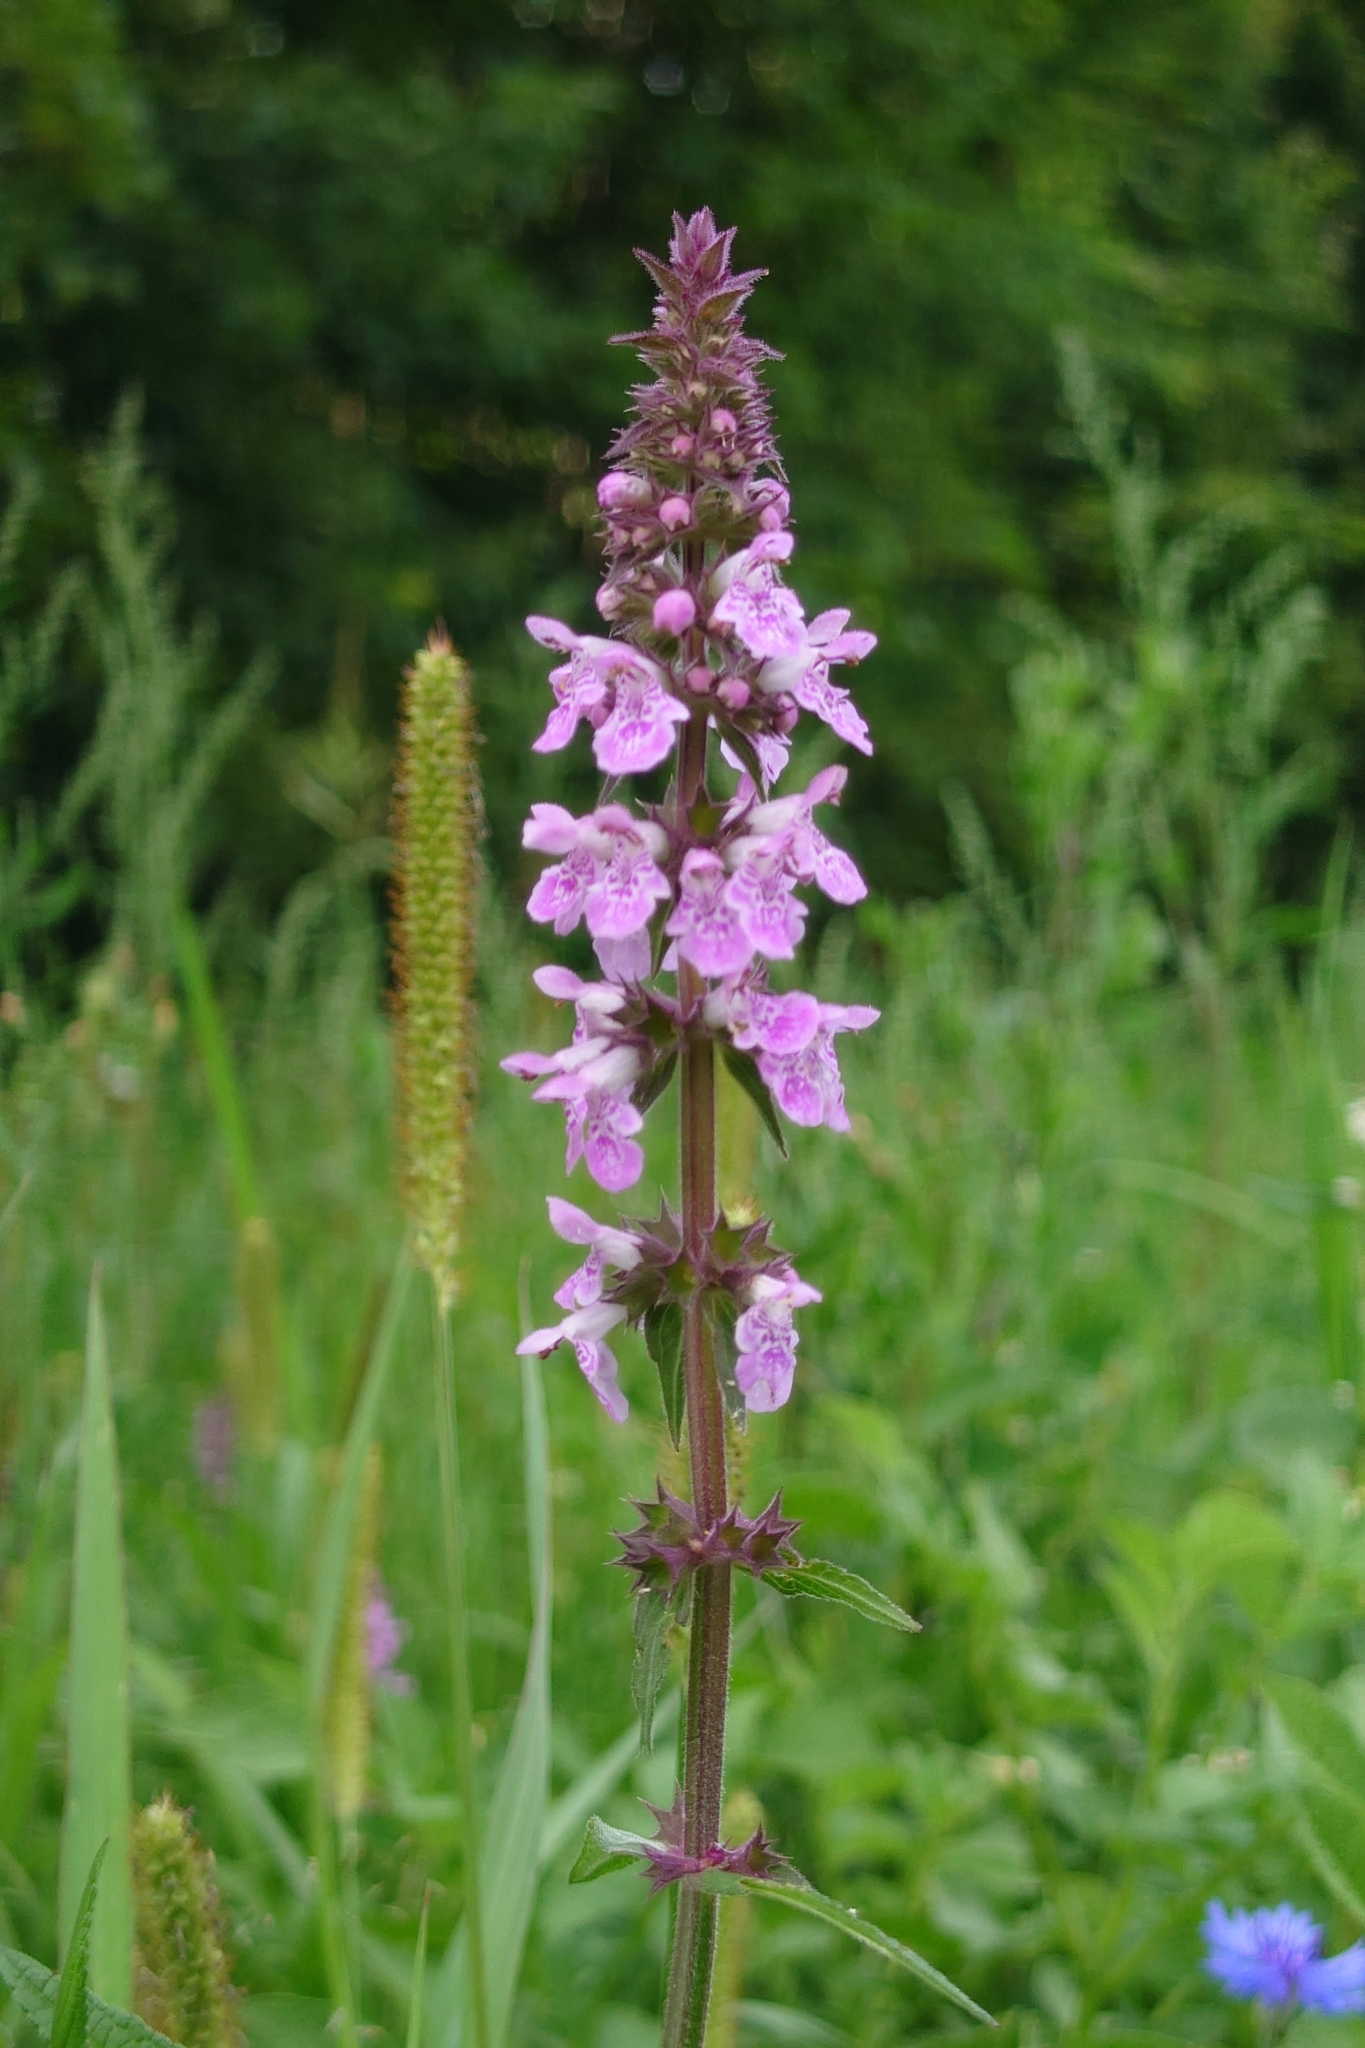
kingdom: Plantae
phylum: Tracheophyta
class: Magnoliopsida
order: Lamiales
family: Lamiaceae
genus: Stachys
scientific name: Stachys palustris
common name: Marsh woundwort
